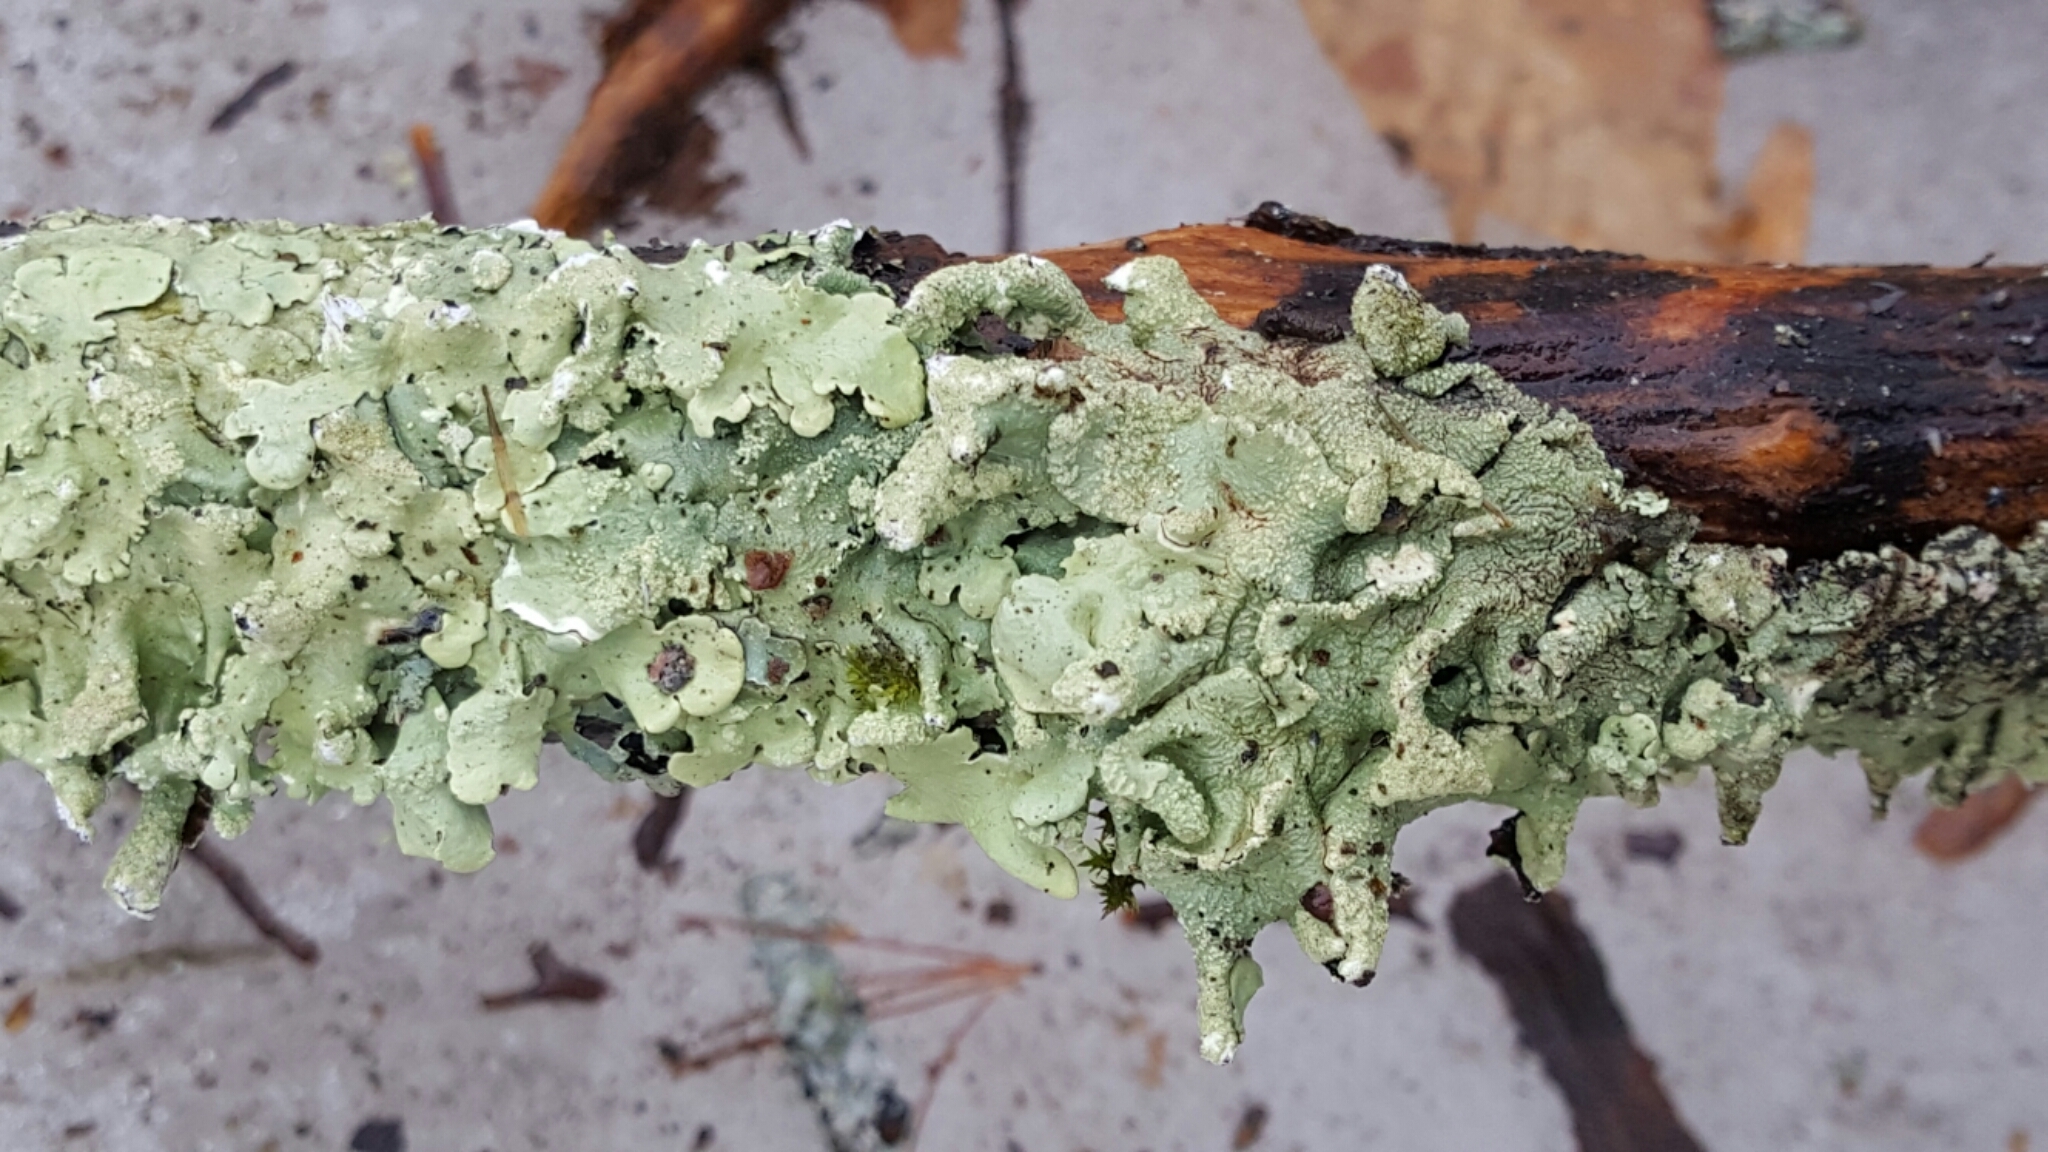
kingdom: Fungi
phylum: Ascomycota
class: Lecanoromycetes
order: Lecanorales
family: Parmeliaceae
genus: Flavoparmelia
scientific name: Flavoparmelia caperata
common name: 40-mile per hour lichen
